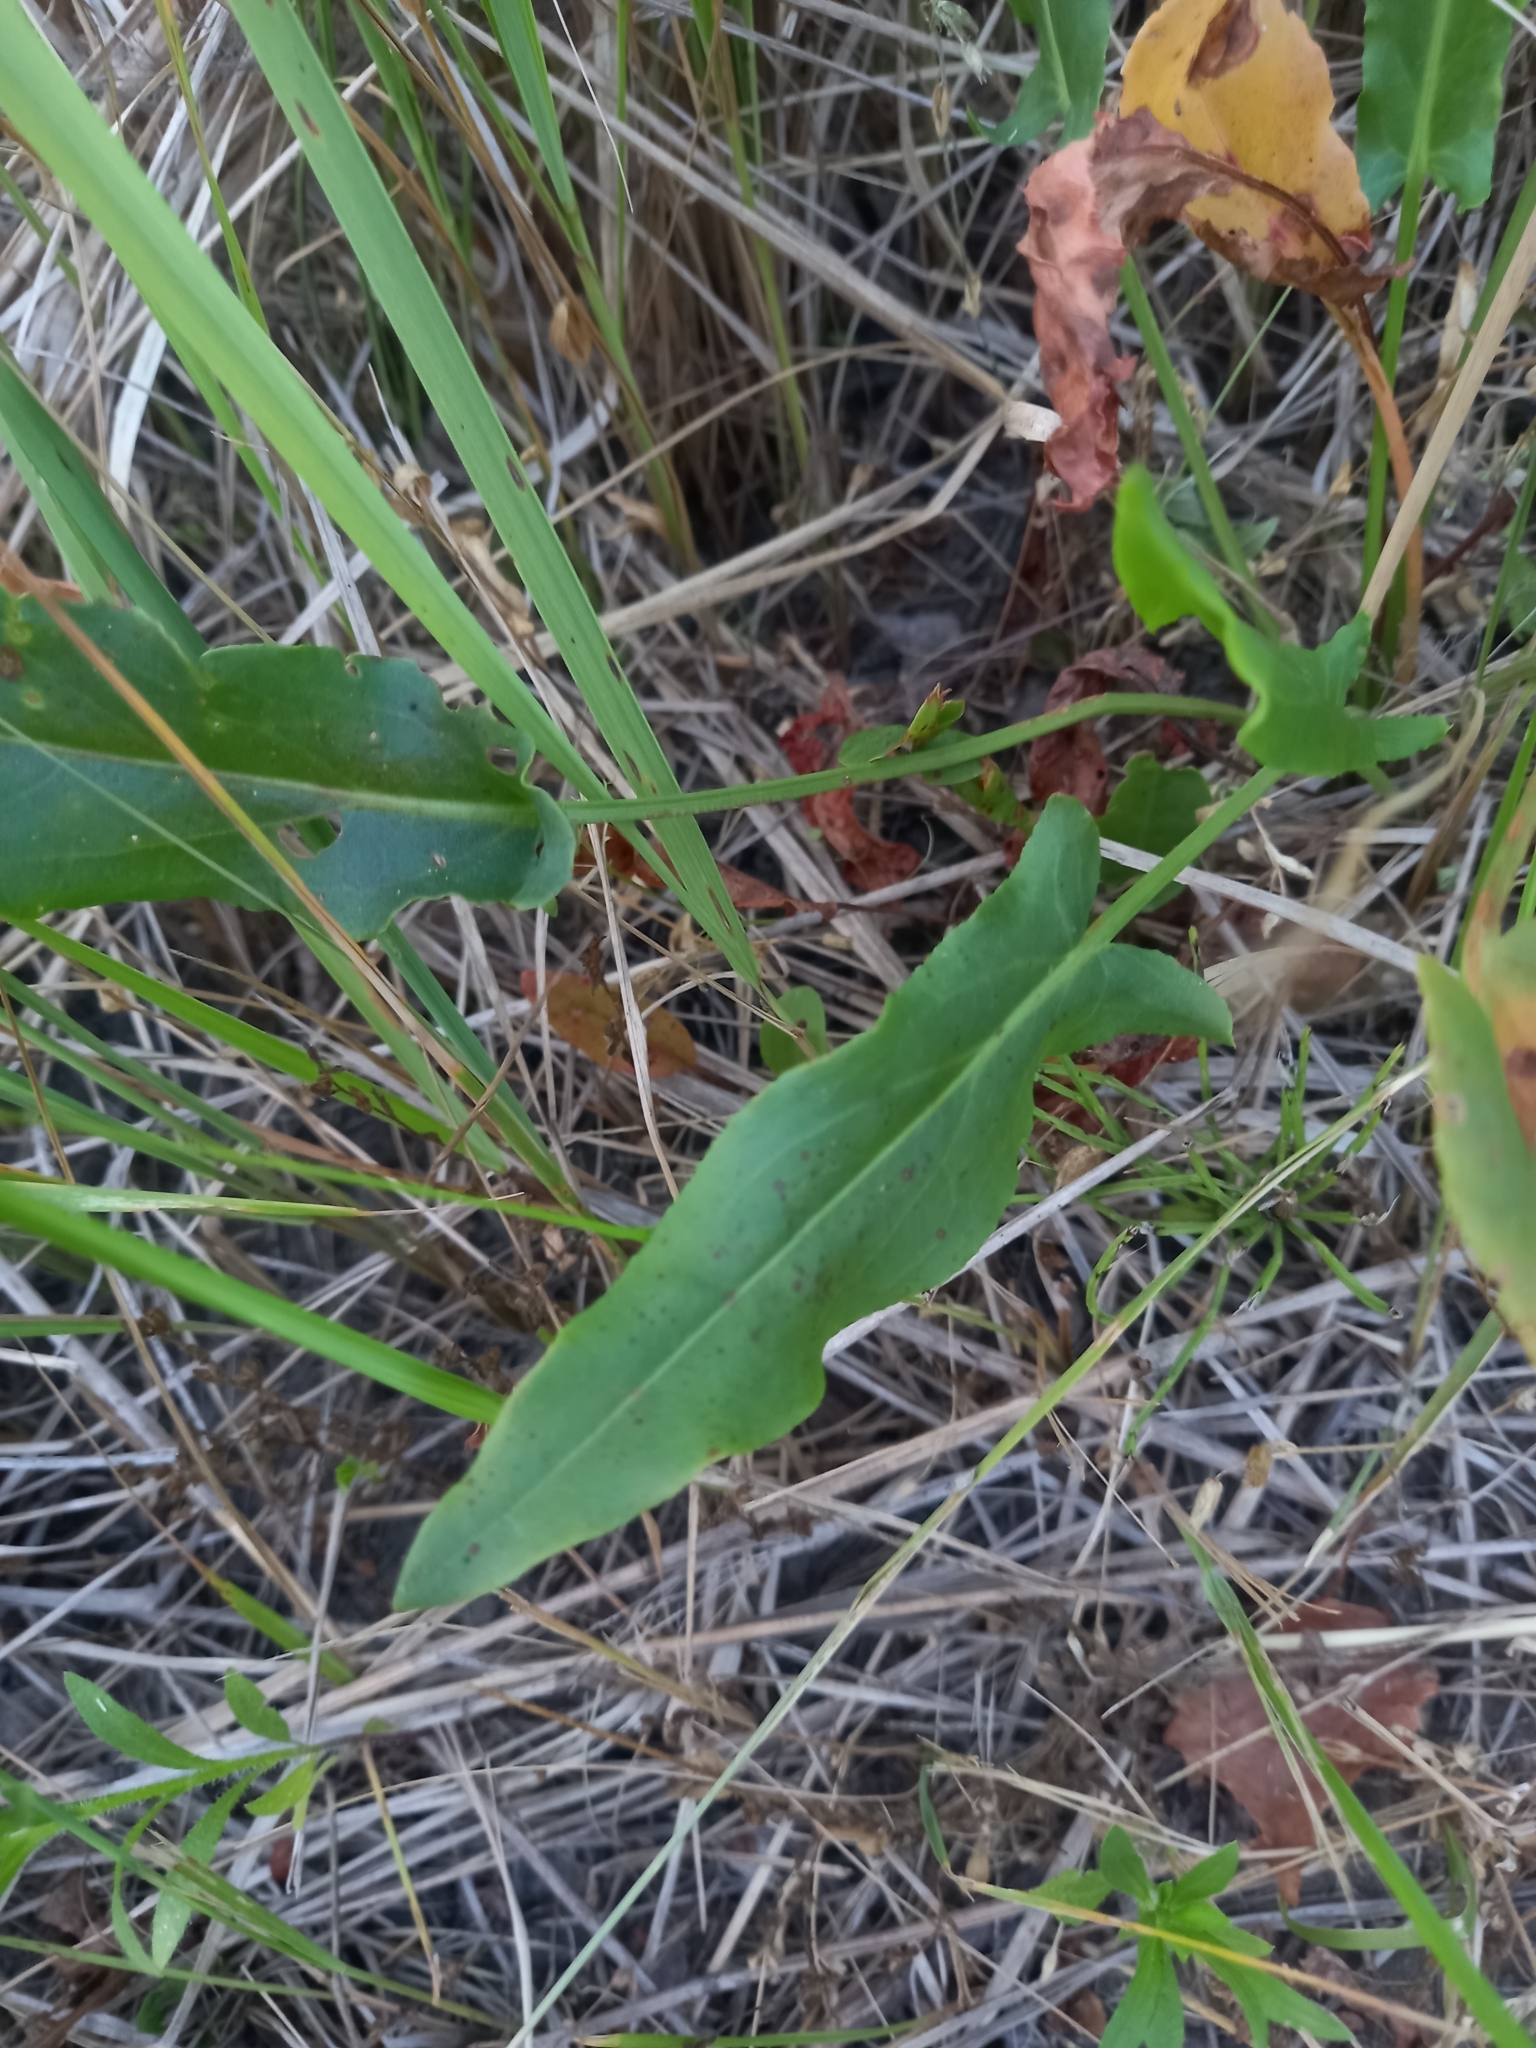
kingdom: Plantae
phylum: Tracheophyta
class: Magnoliopsida
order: Caryophyllales
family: Polygonaceae
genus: Rumex
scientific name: Rumex acetosa
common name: Garden sorrel
